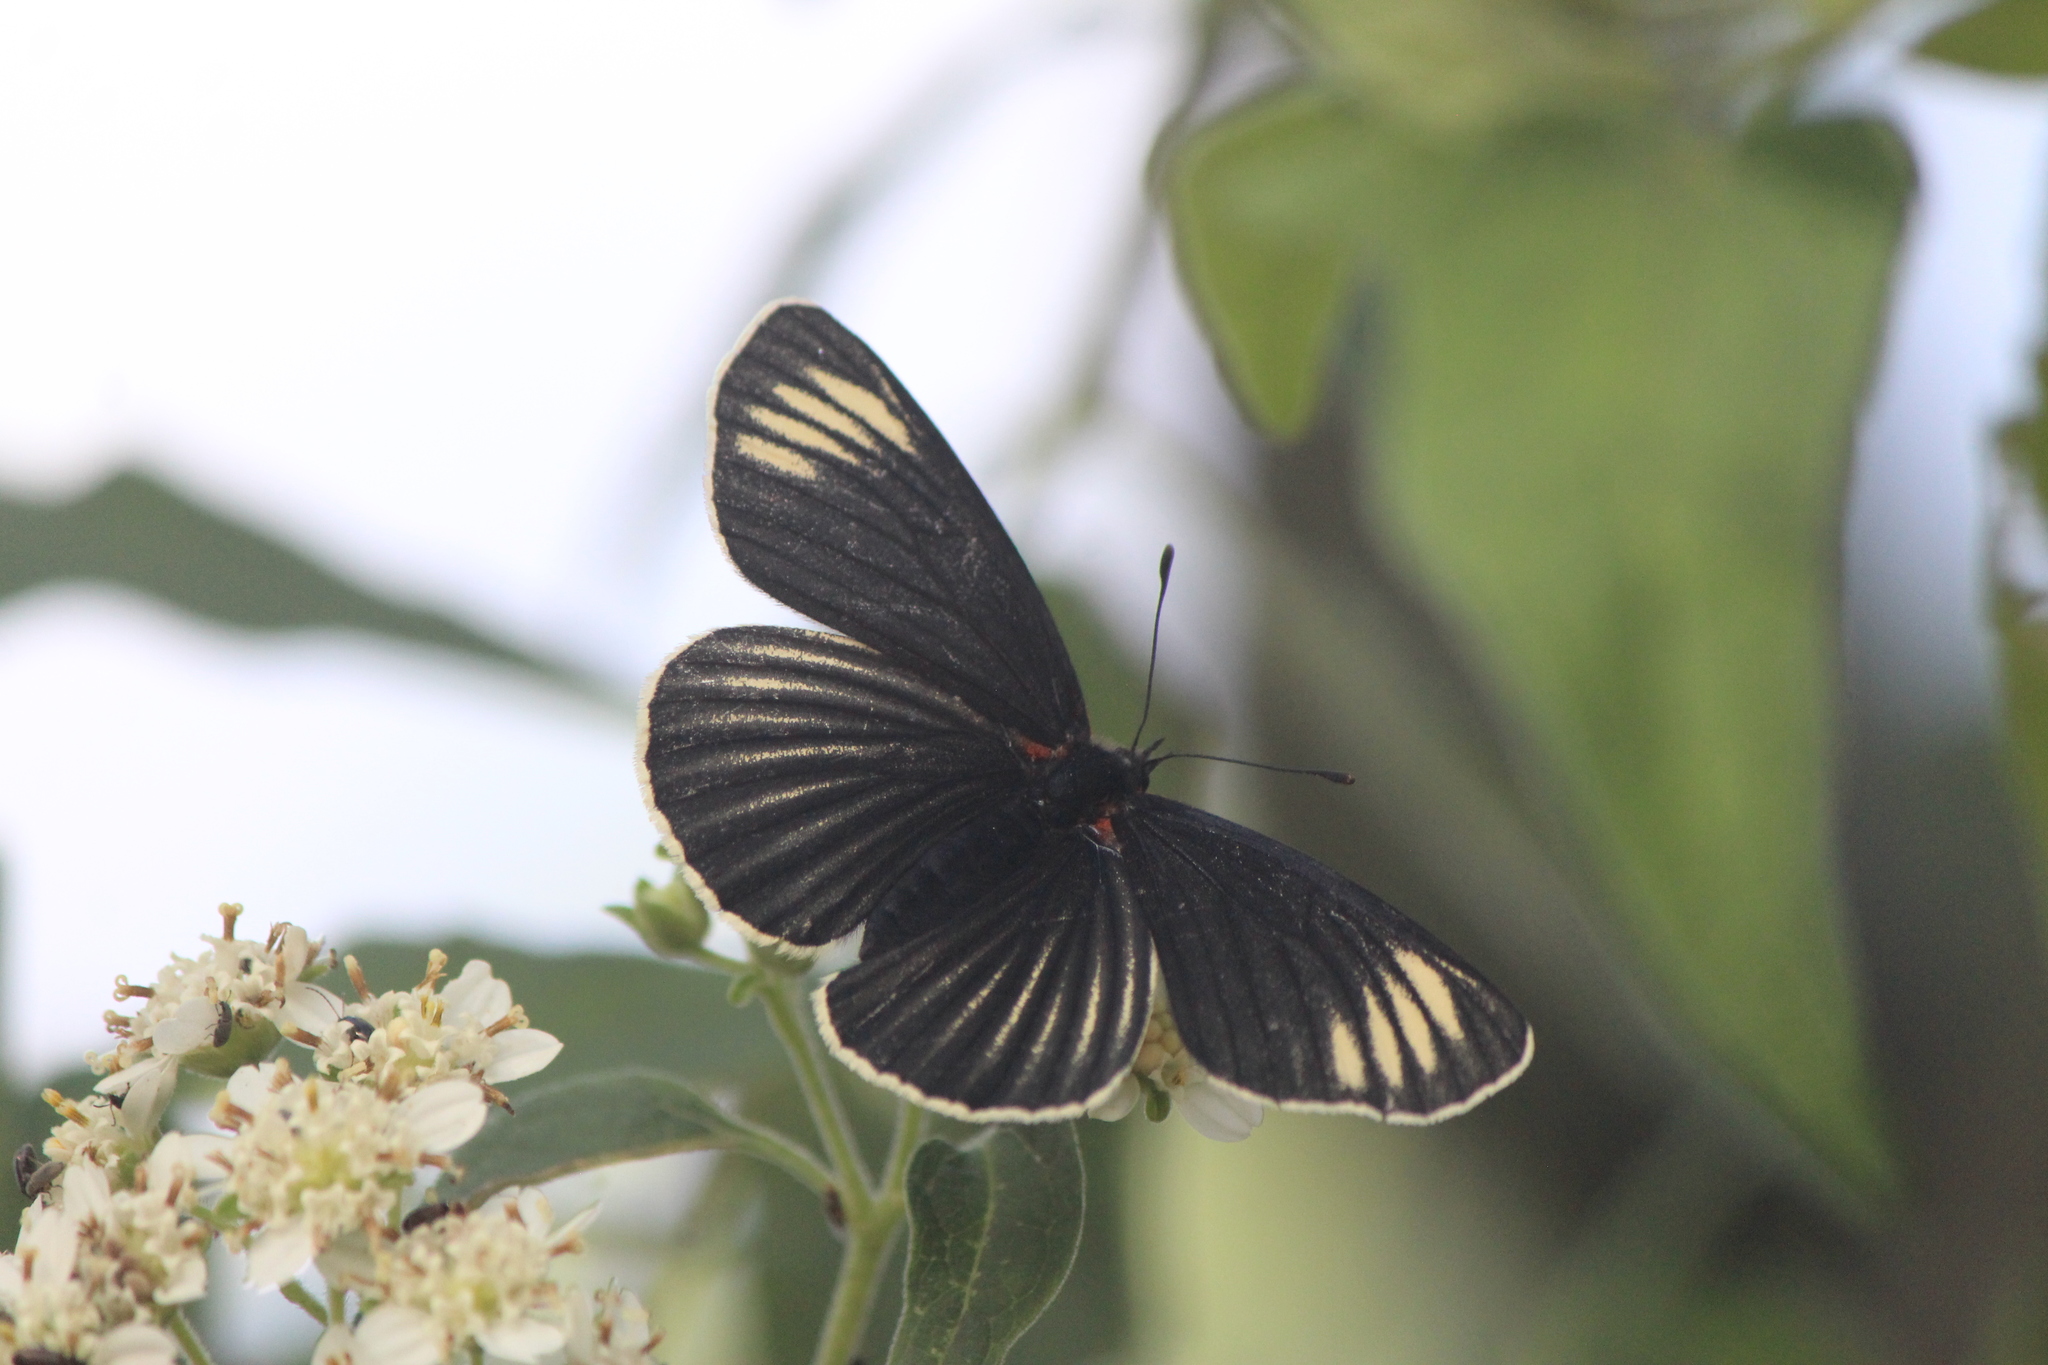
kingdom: Animalia
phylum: Arthropoda
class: Insecta
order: Lepidoptera
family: Nymphalidae
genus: Chlosyne
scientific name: Chlosyne ehrenbergii
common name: White-rayed patch
